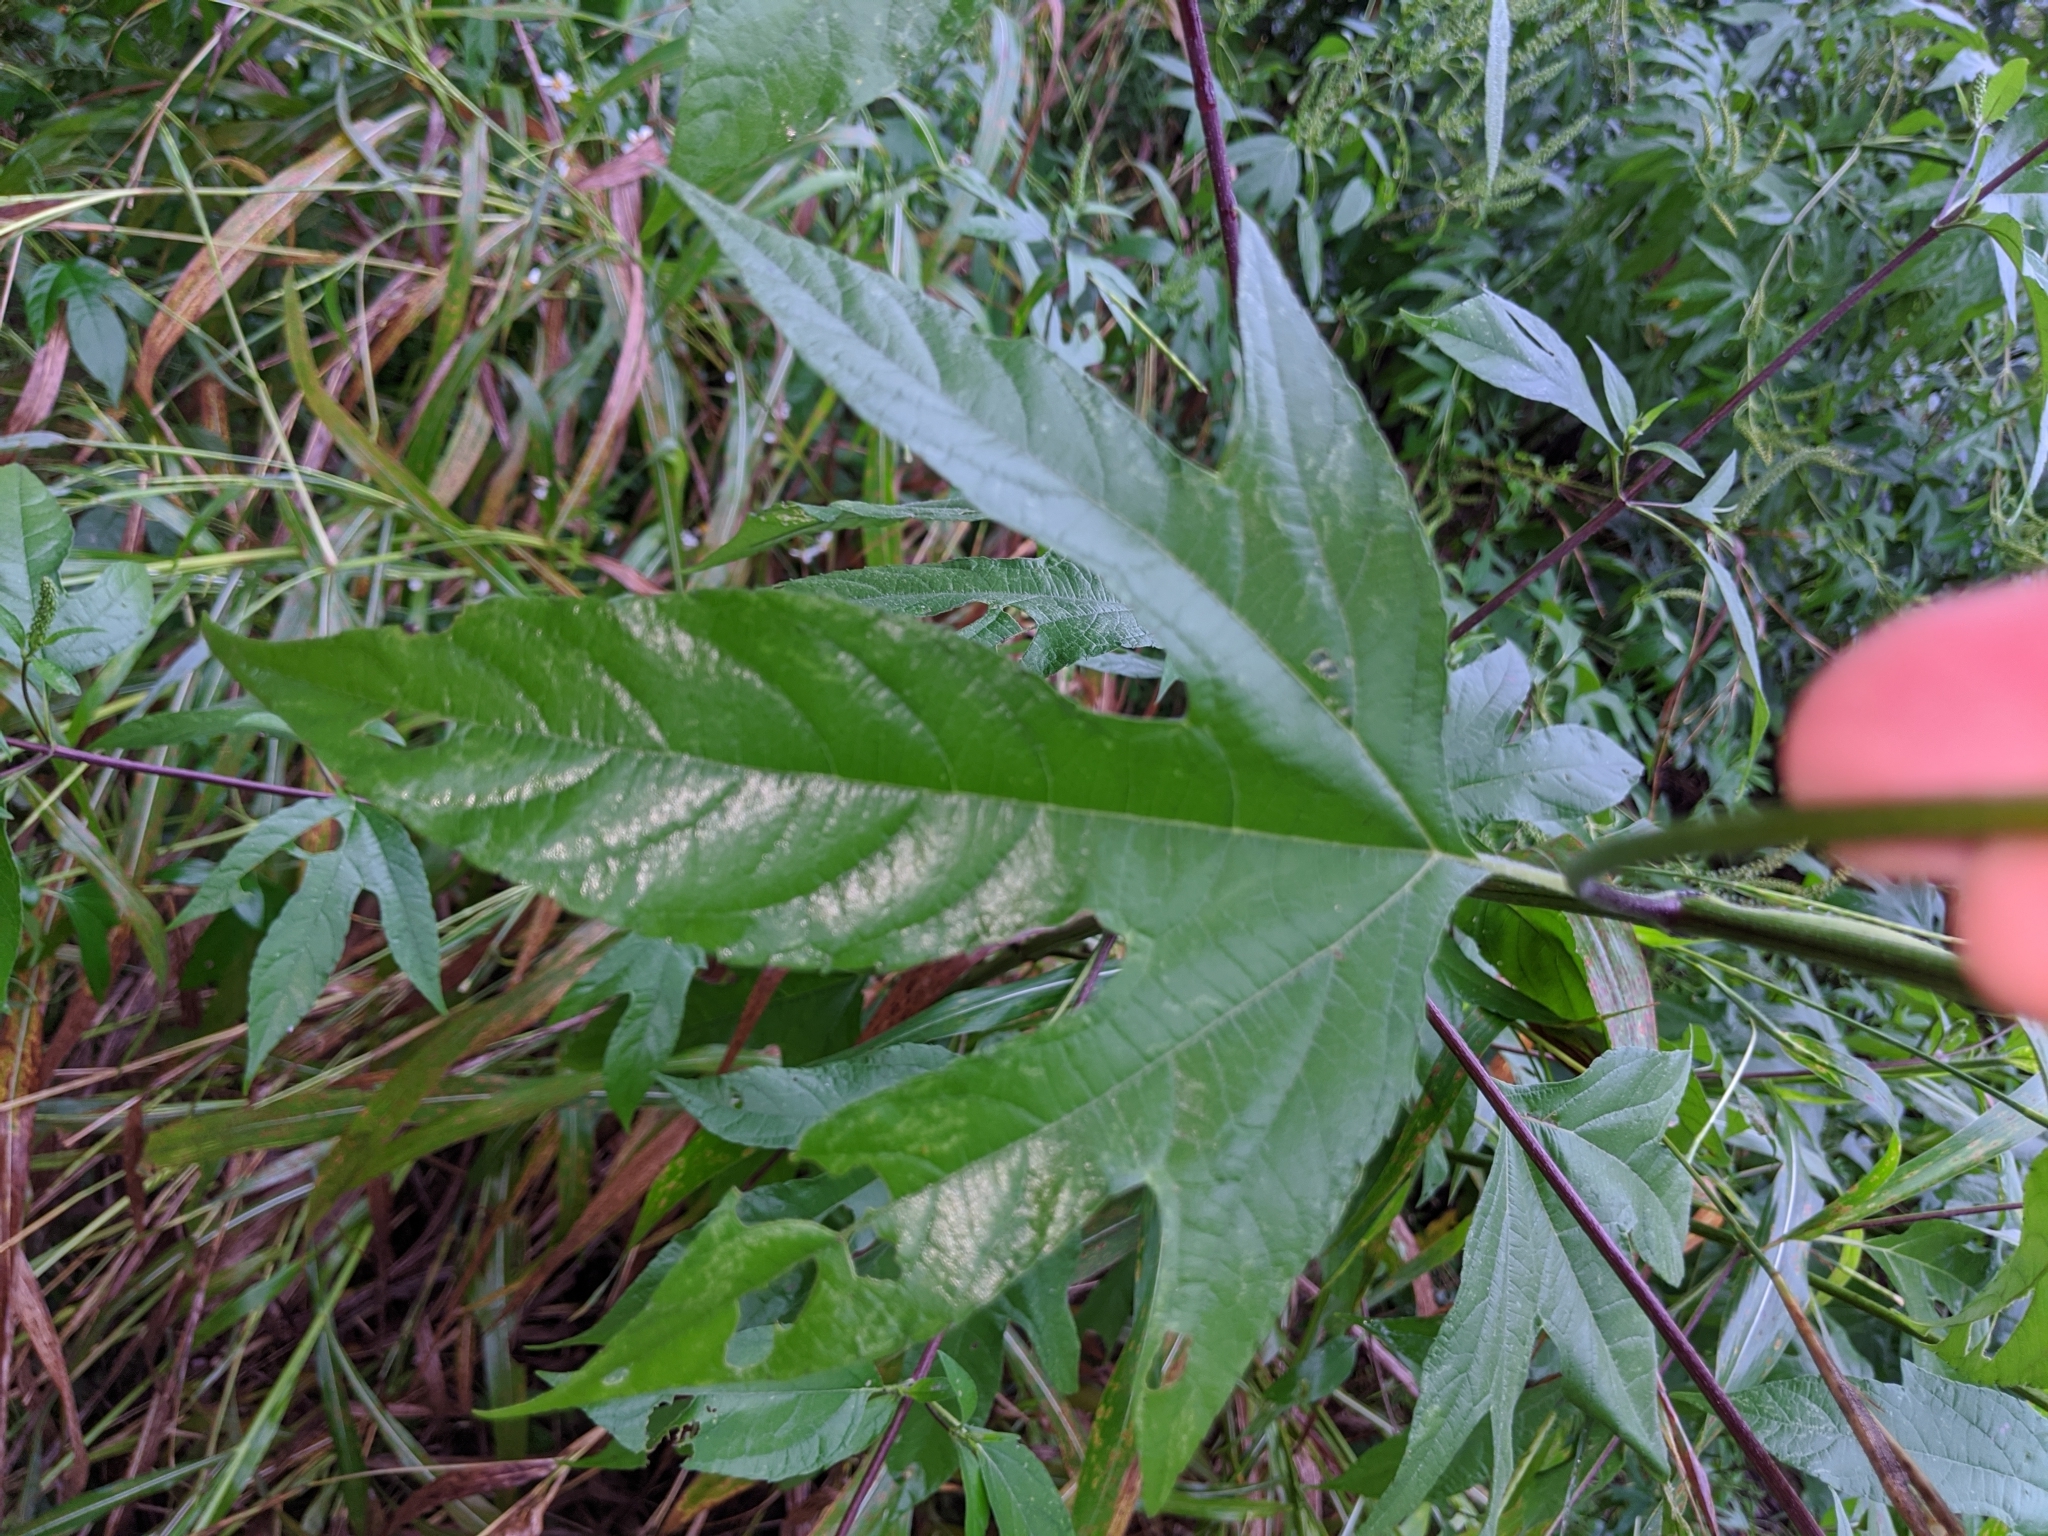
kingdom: Plantae
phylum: Tracheophyta
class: Magnoliopsida
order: Asterales
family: Asteraceae
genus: Ambrosia
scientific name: Ambrosia trifida
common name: Giant ragweed
